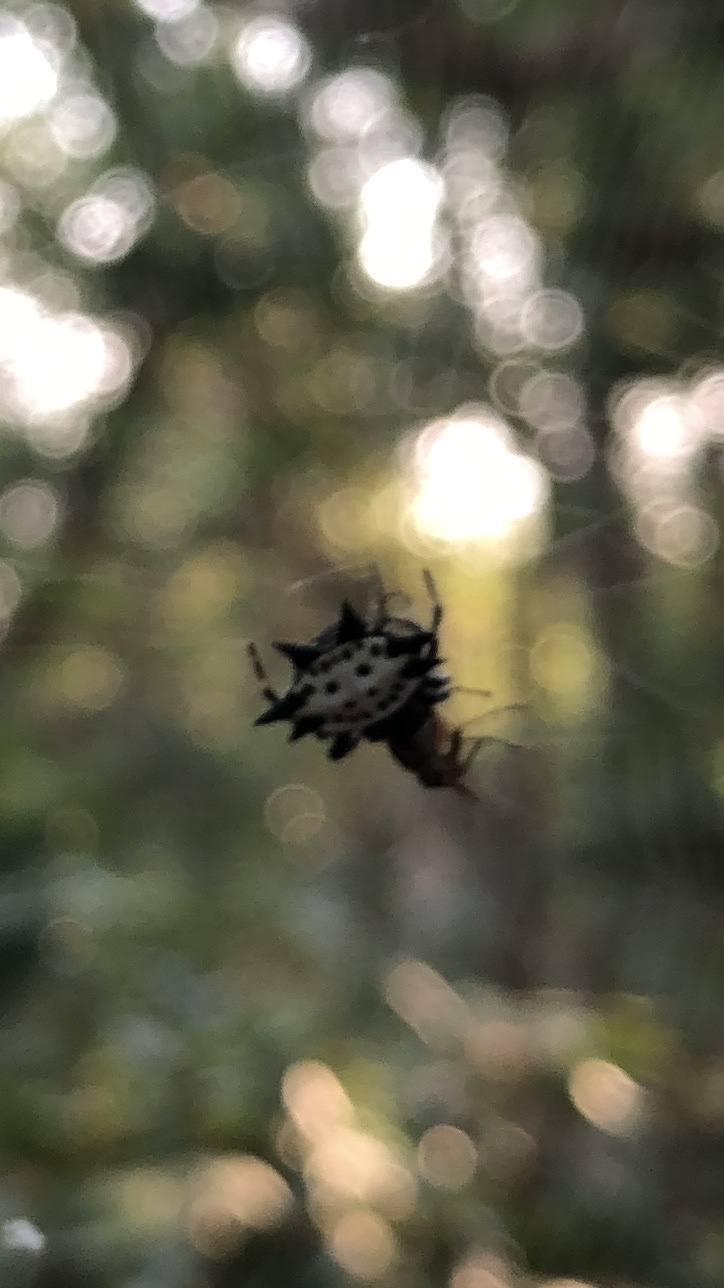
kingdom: Animalia
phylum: Arthropoda
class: Arachnida
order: Araneae
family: Araneidae
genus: Gasteracantha
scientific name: Gasteracantha cancriformis
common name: Orb weavers
